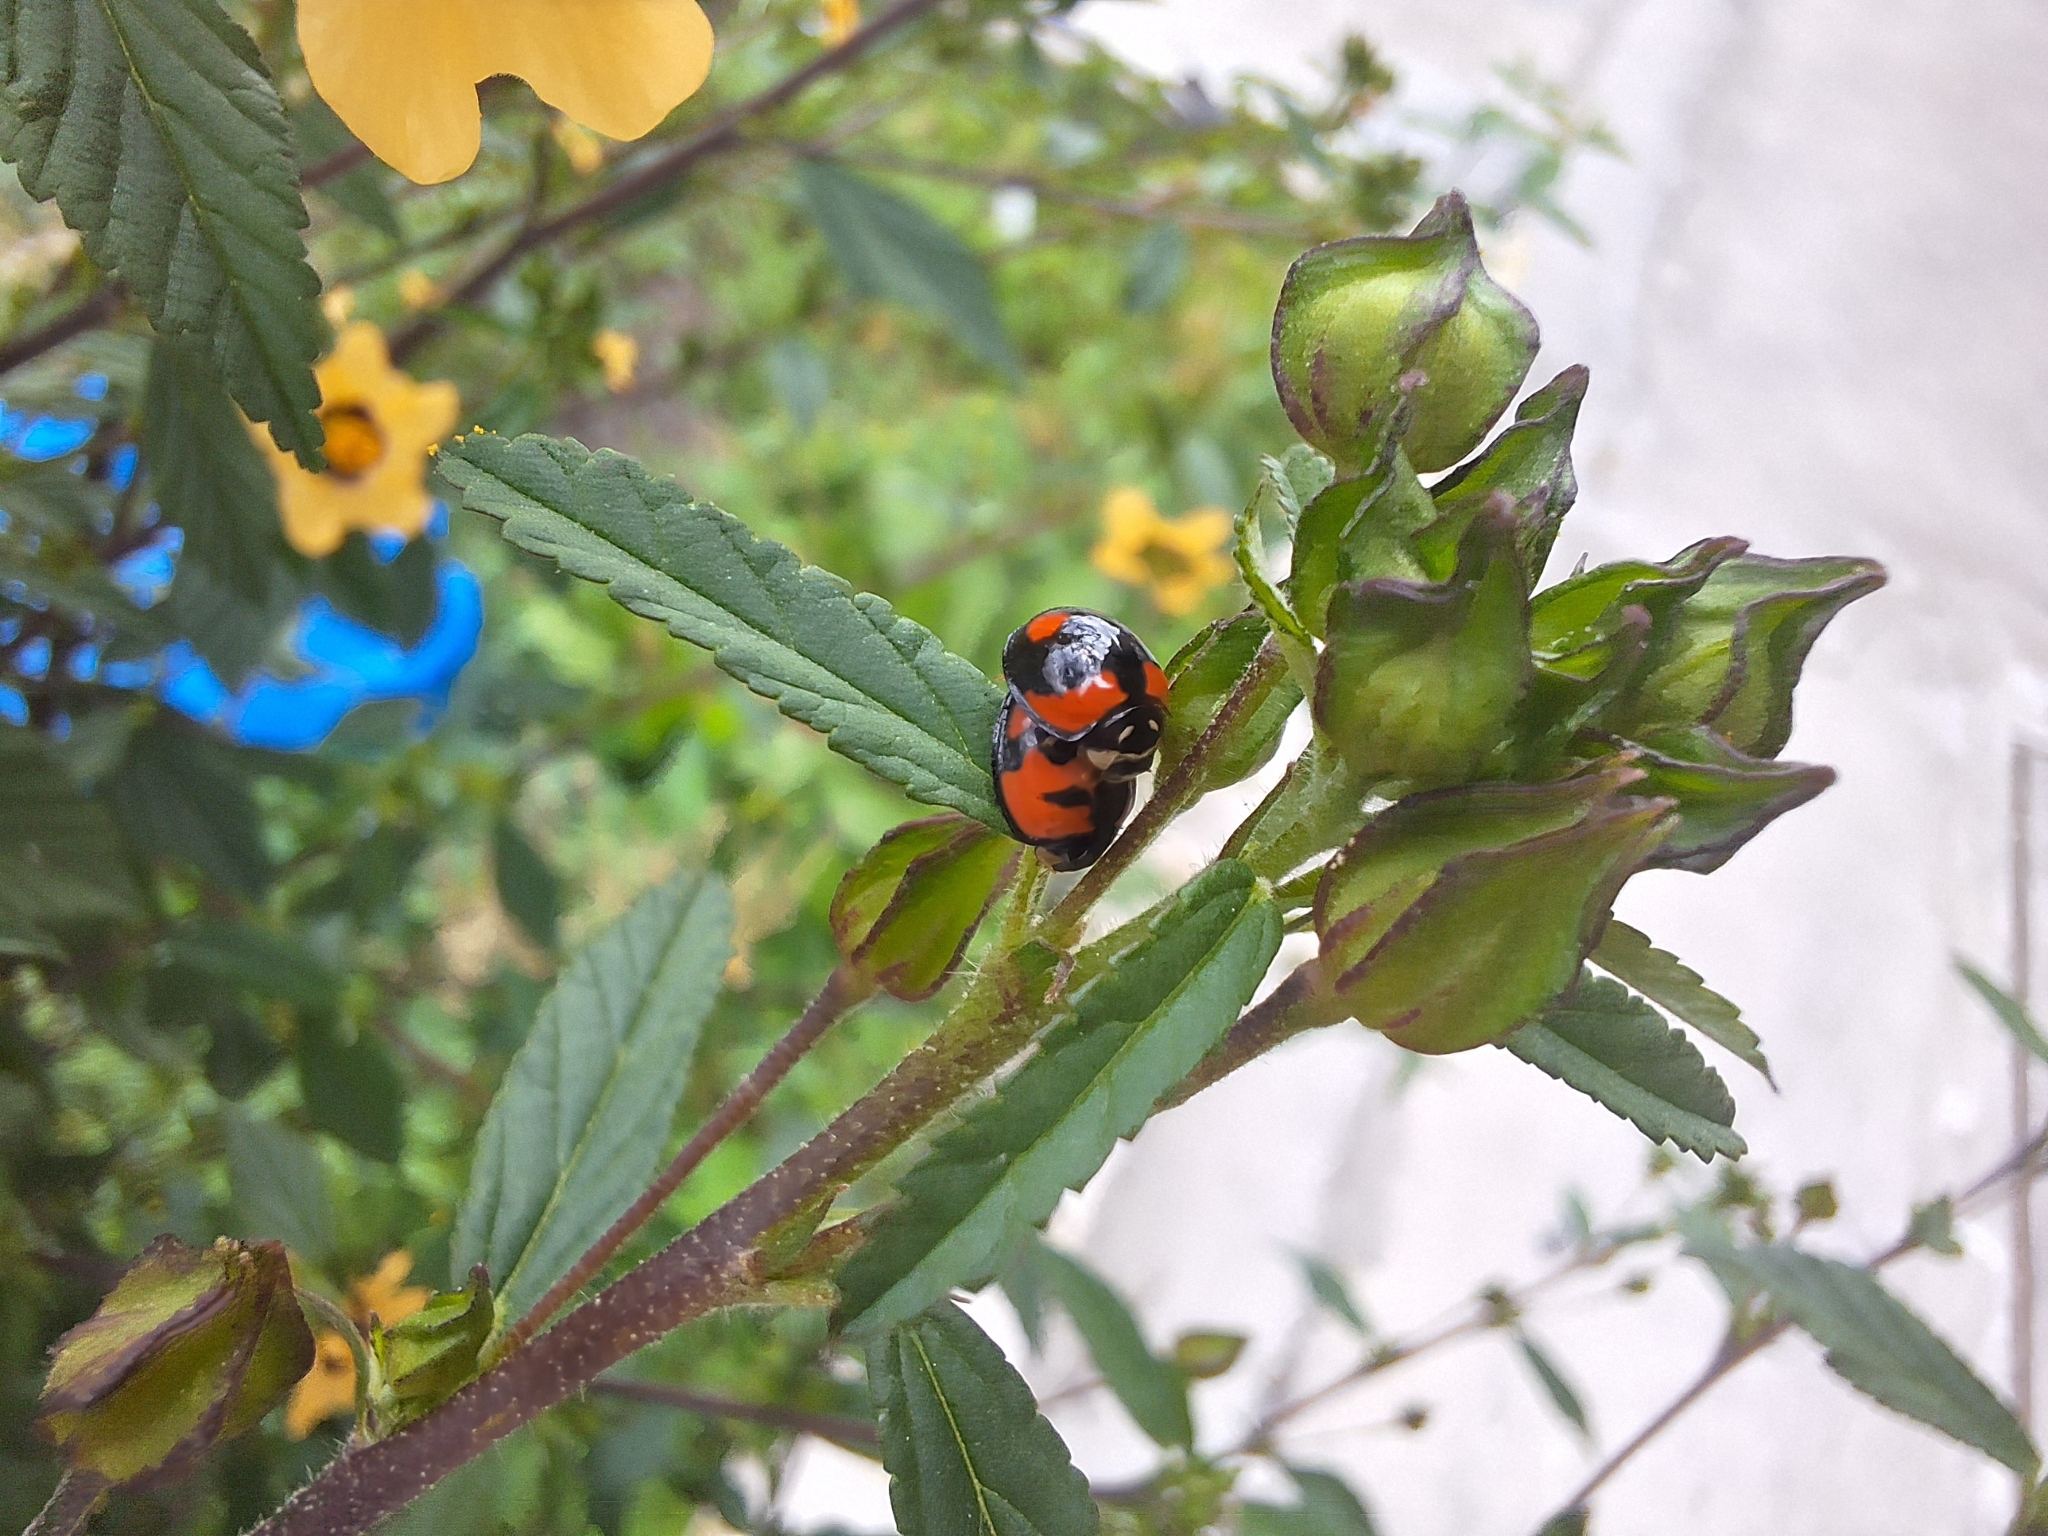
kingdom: Animalia
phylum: Arthropoda
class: Insecta
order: Coleoptera
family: Coccinellidae
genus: Cheilomenes
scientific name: Cheilomenes sexmaculata
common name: Ladybird beetle
